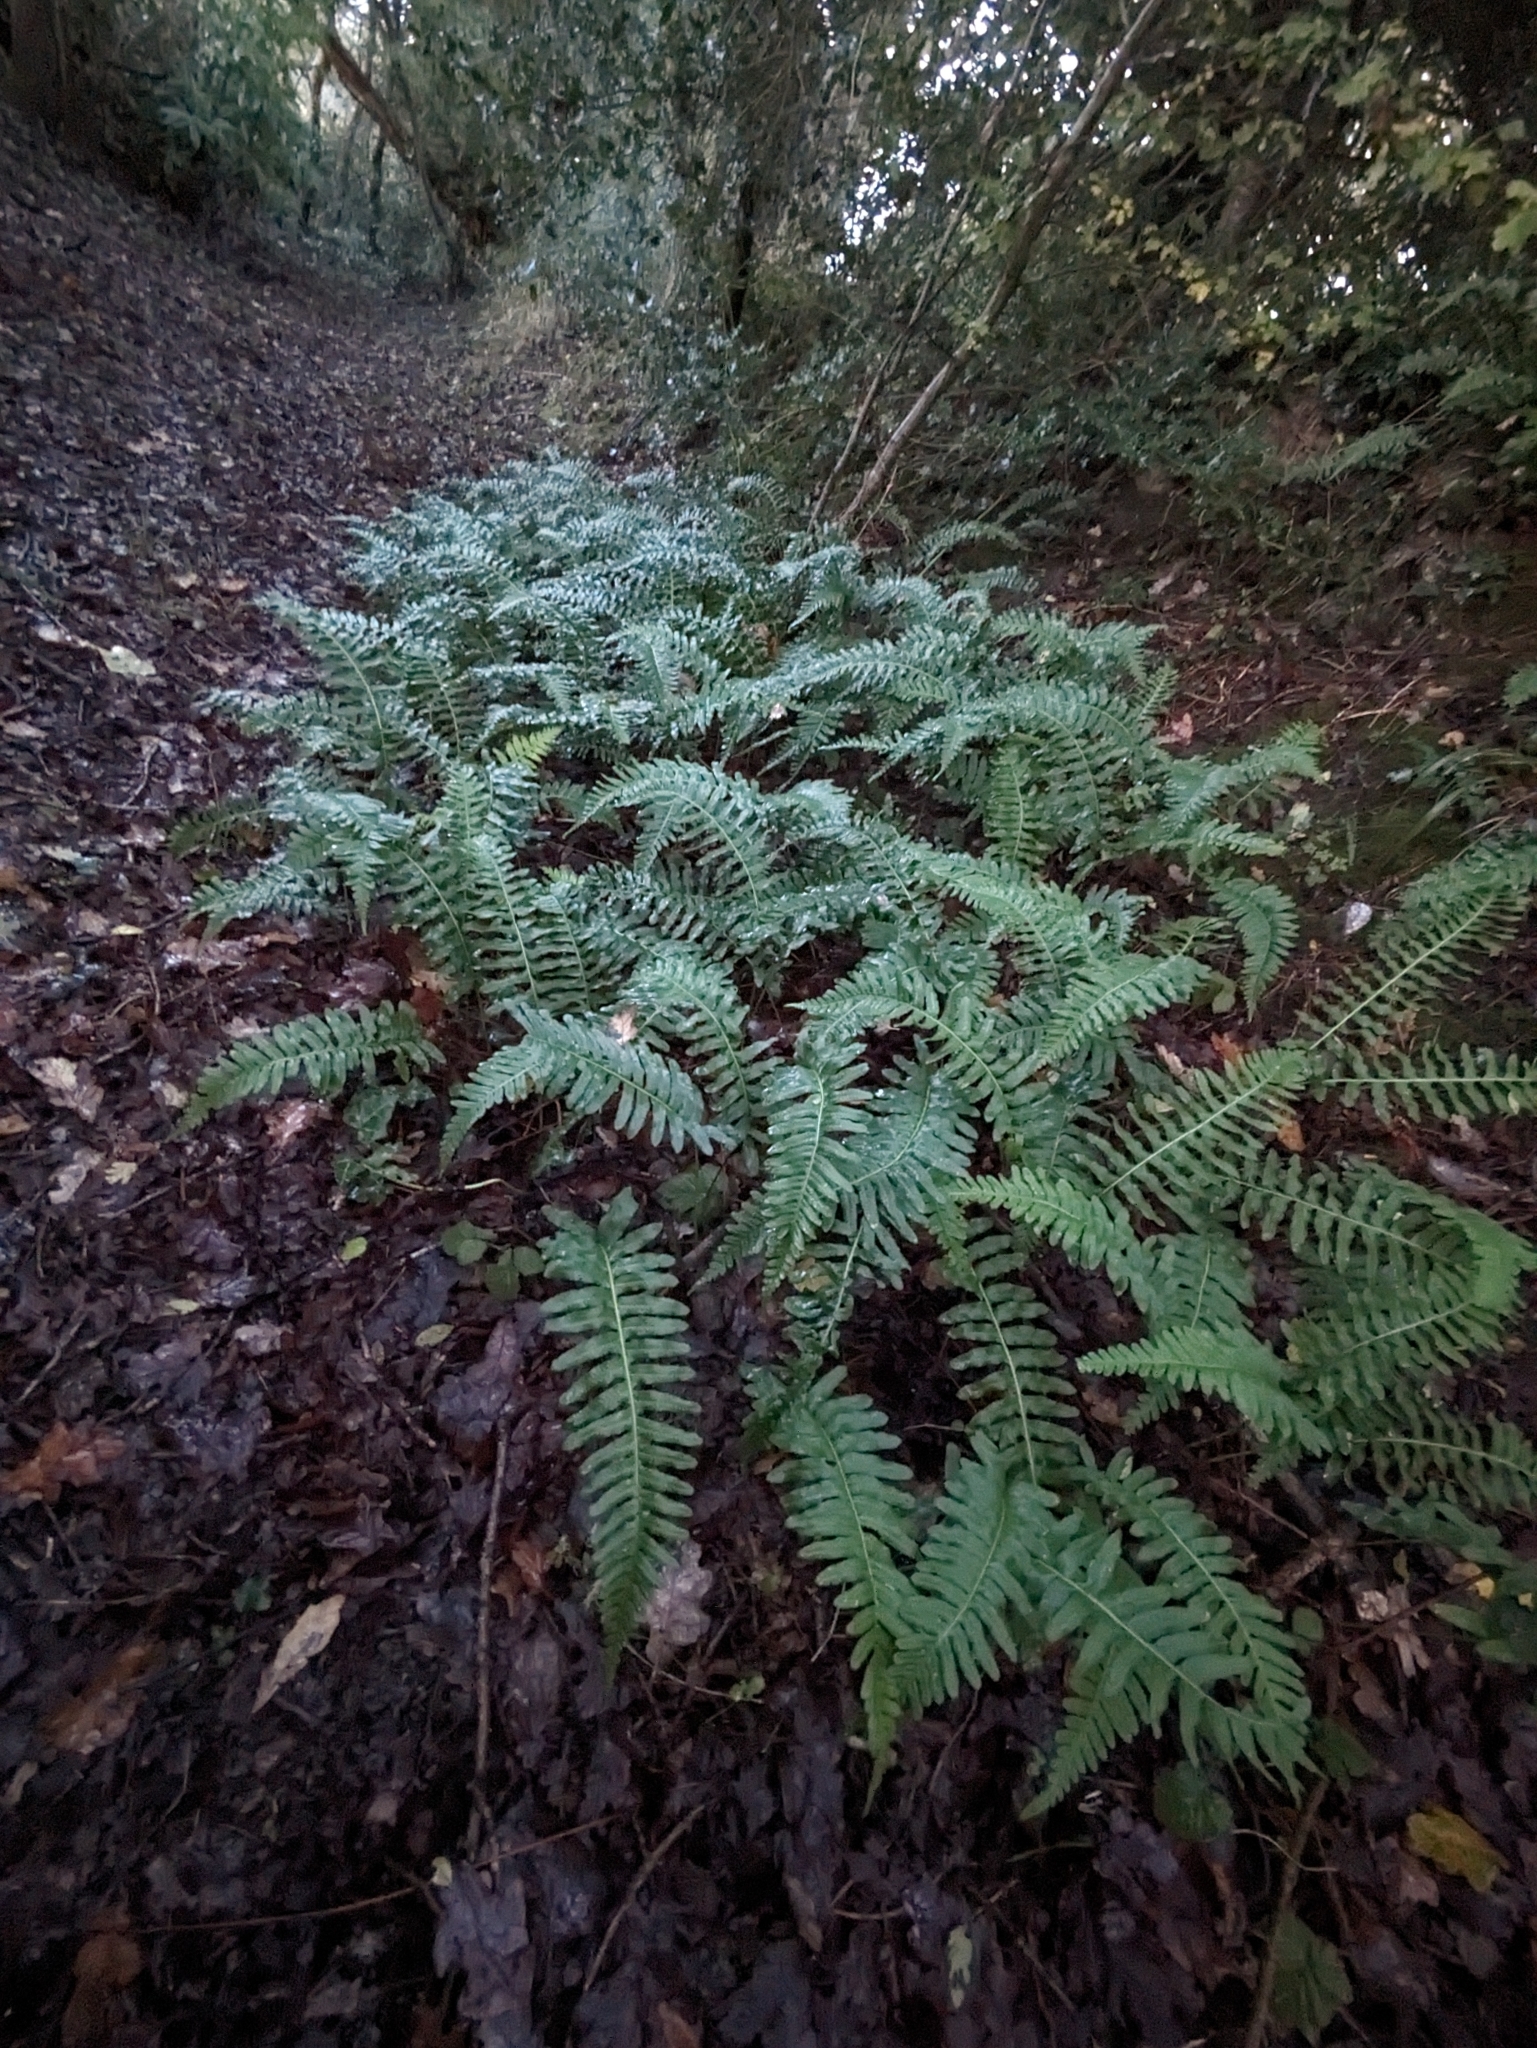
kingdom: Plantae
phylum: Tracheophyta
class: Polypodiopsida
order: Polypodiales
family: Polypodiaceae
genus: Polypodium
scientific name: Polypodium
